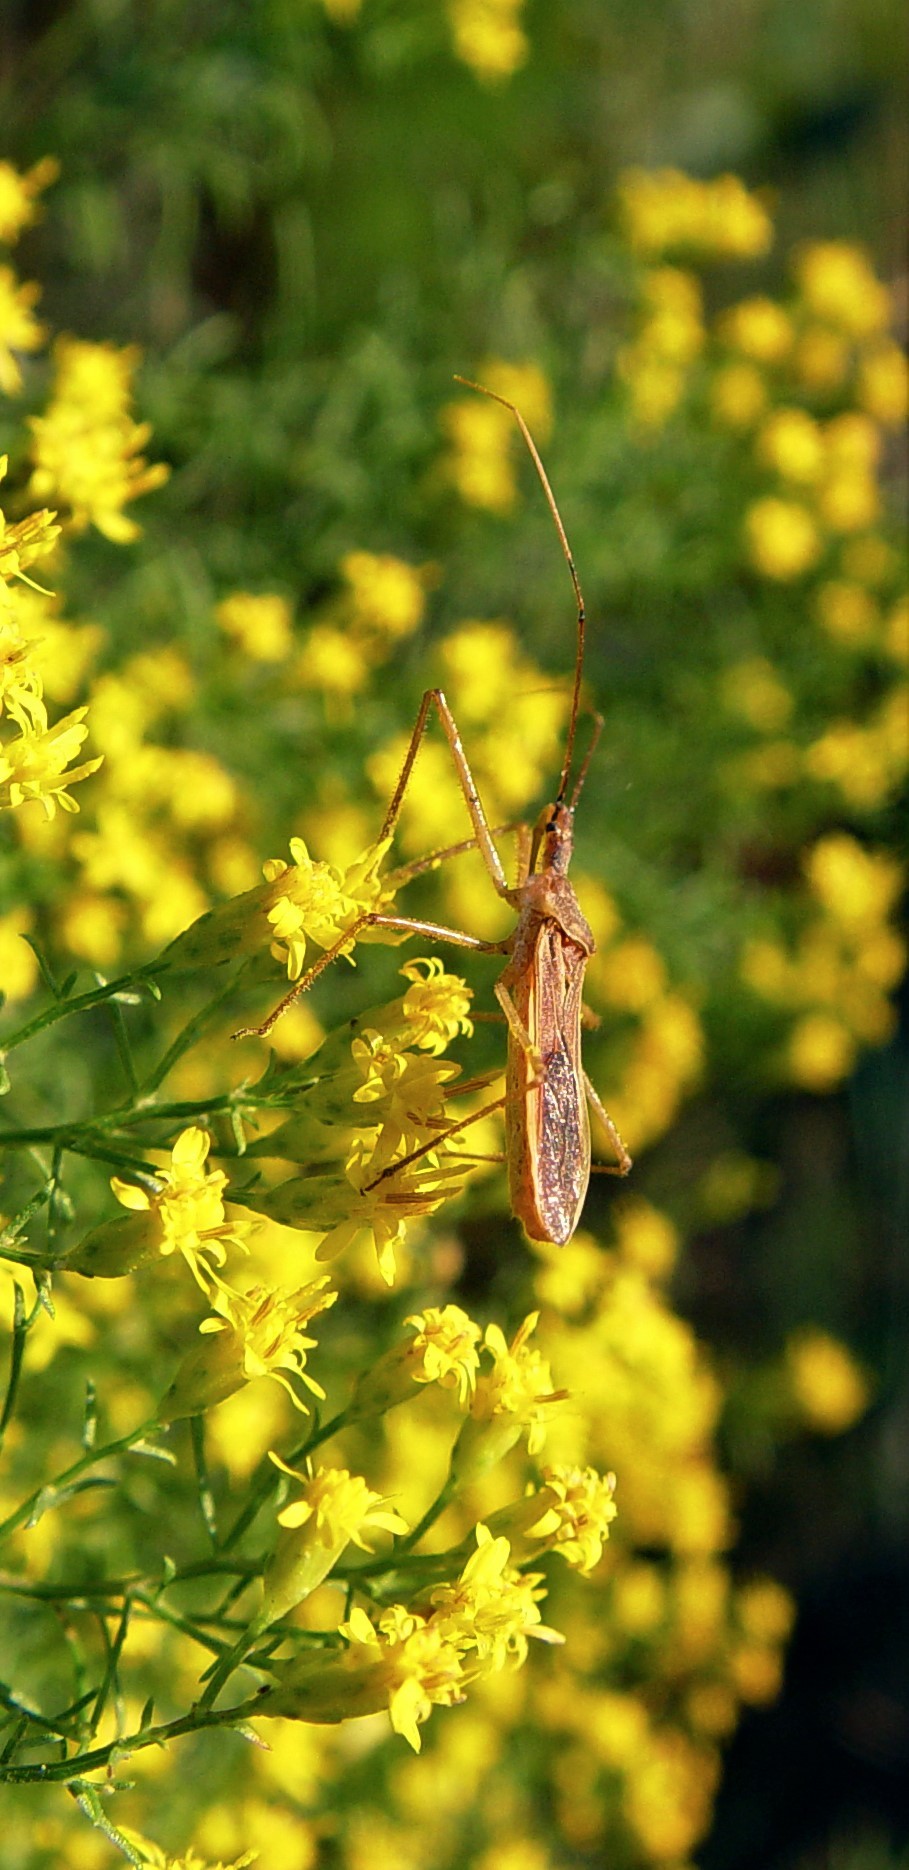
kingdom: Animalia
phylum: Arthropoda
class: Insecta
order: Hemiptera
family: Reduviidae
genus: Zelus
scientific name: Zelus cervicalis
